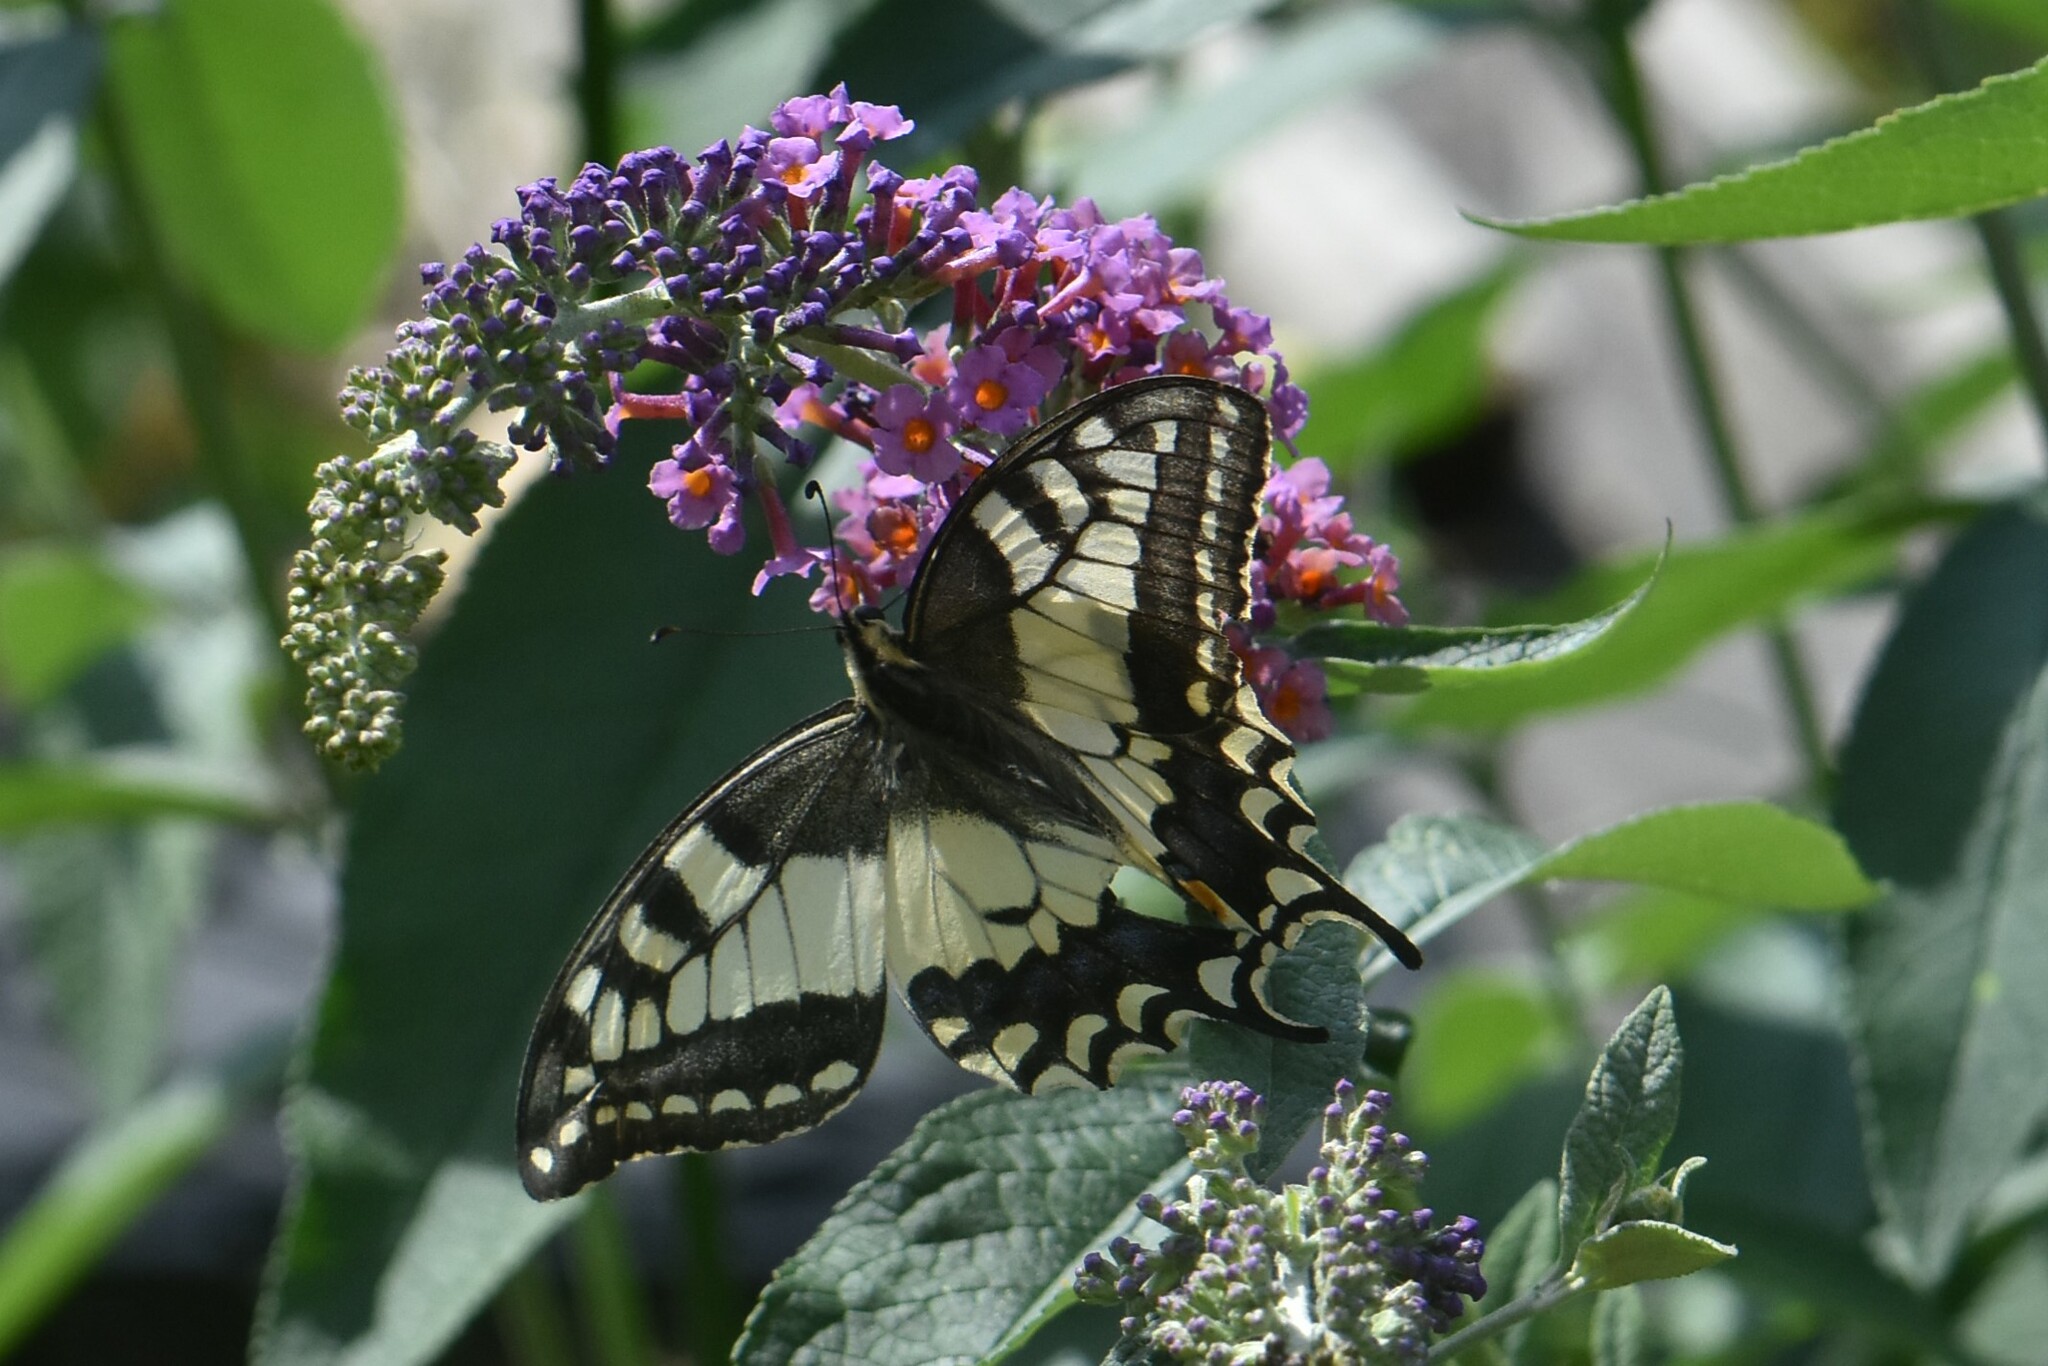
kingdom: Animalia
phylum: Arthropoda
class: Insecta
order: Lepidoptera
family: Papilionidae
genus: Papilio
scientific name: Papilio machaon
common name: Swallowtail
